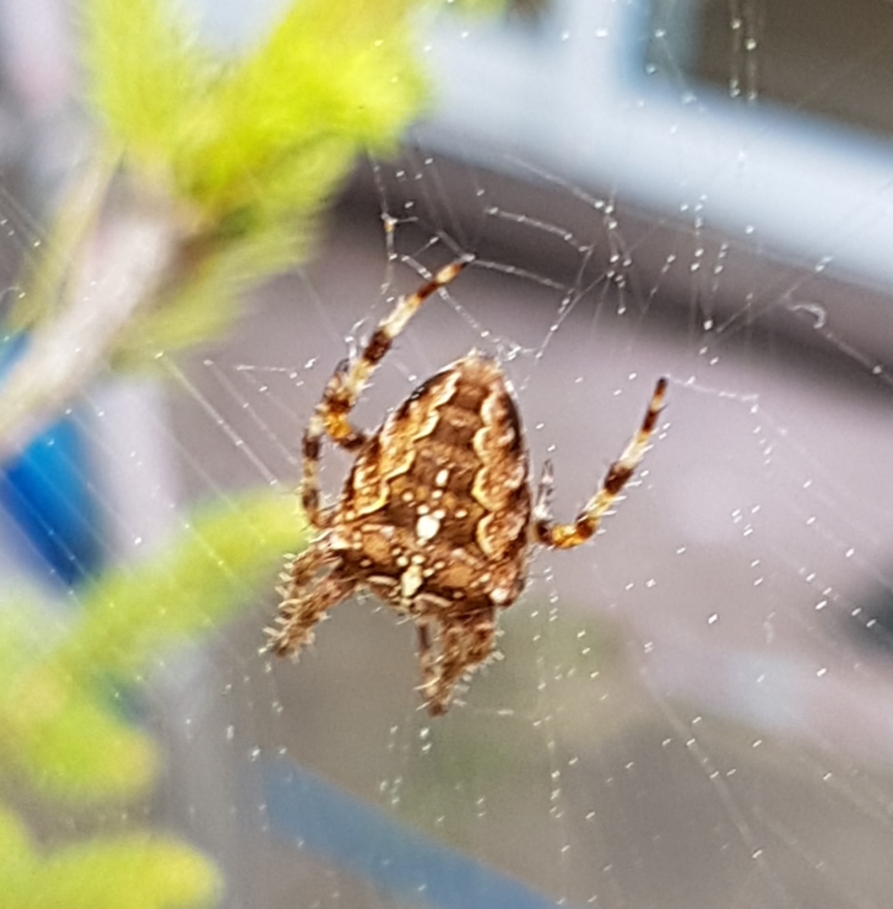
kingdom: Animalia
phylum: Arthropoda
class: Arachnida
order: Araneae
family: Araneidae
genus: Araneus
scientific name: Araneus diadematus
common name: Cross orbweaver
